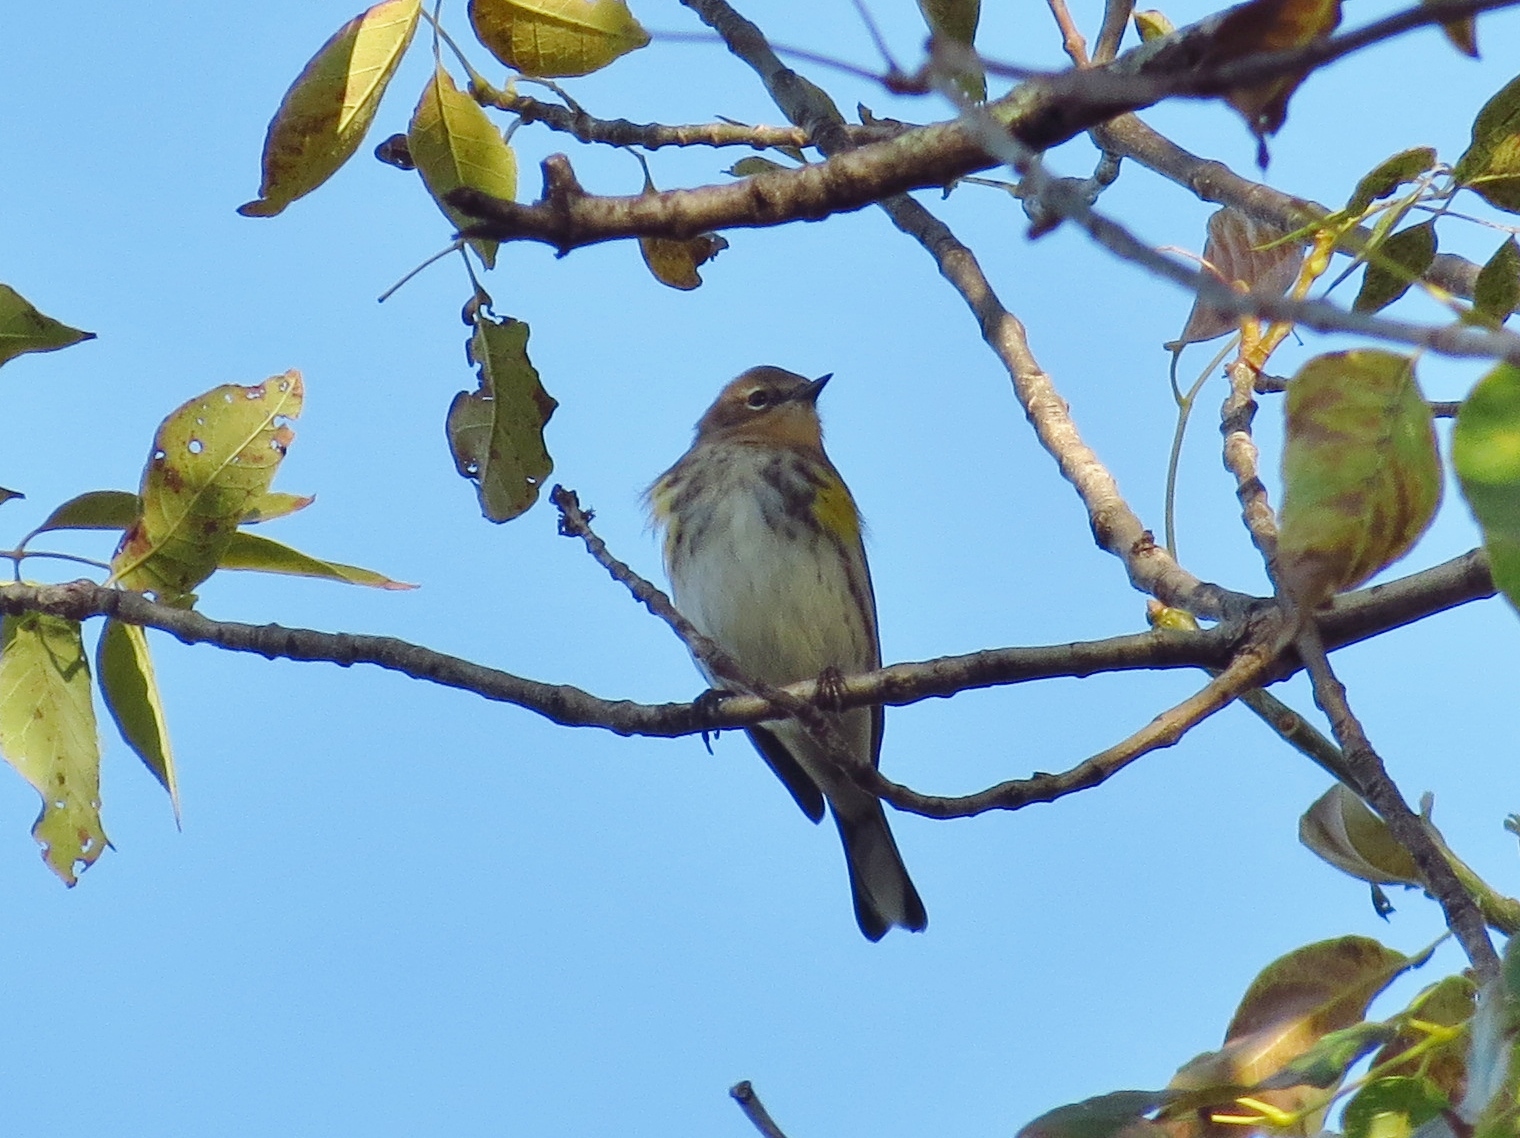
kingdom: Animalia
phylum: Chordata
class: Aves
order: Passeriformes
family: Parulidae
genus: Setophaga
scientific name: Setophaga coronata
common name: Myrtle warbler
